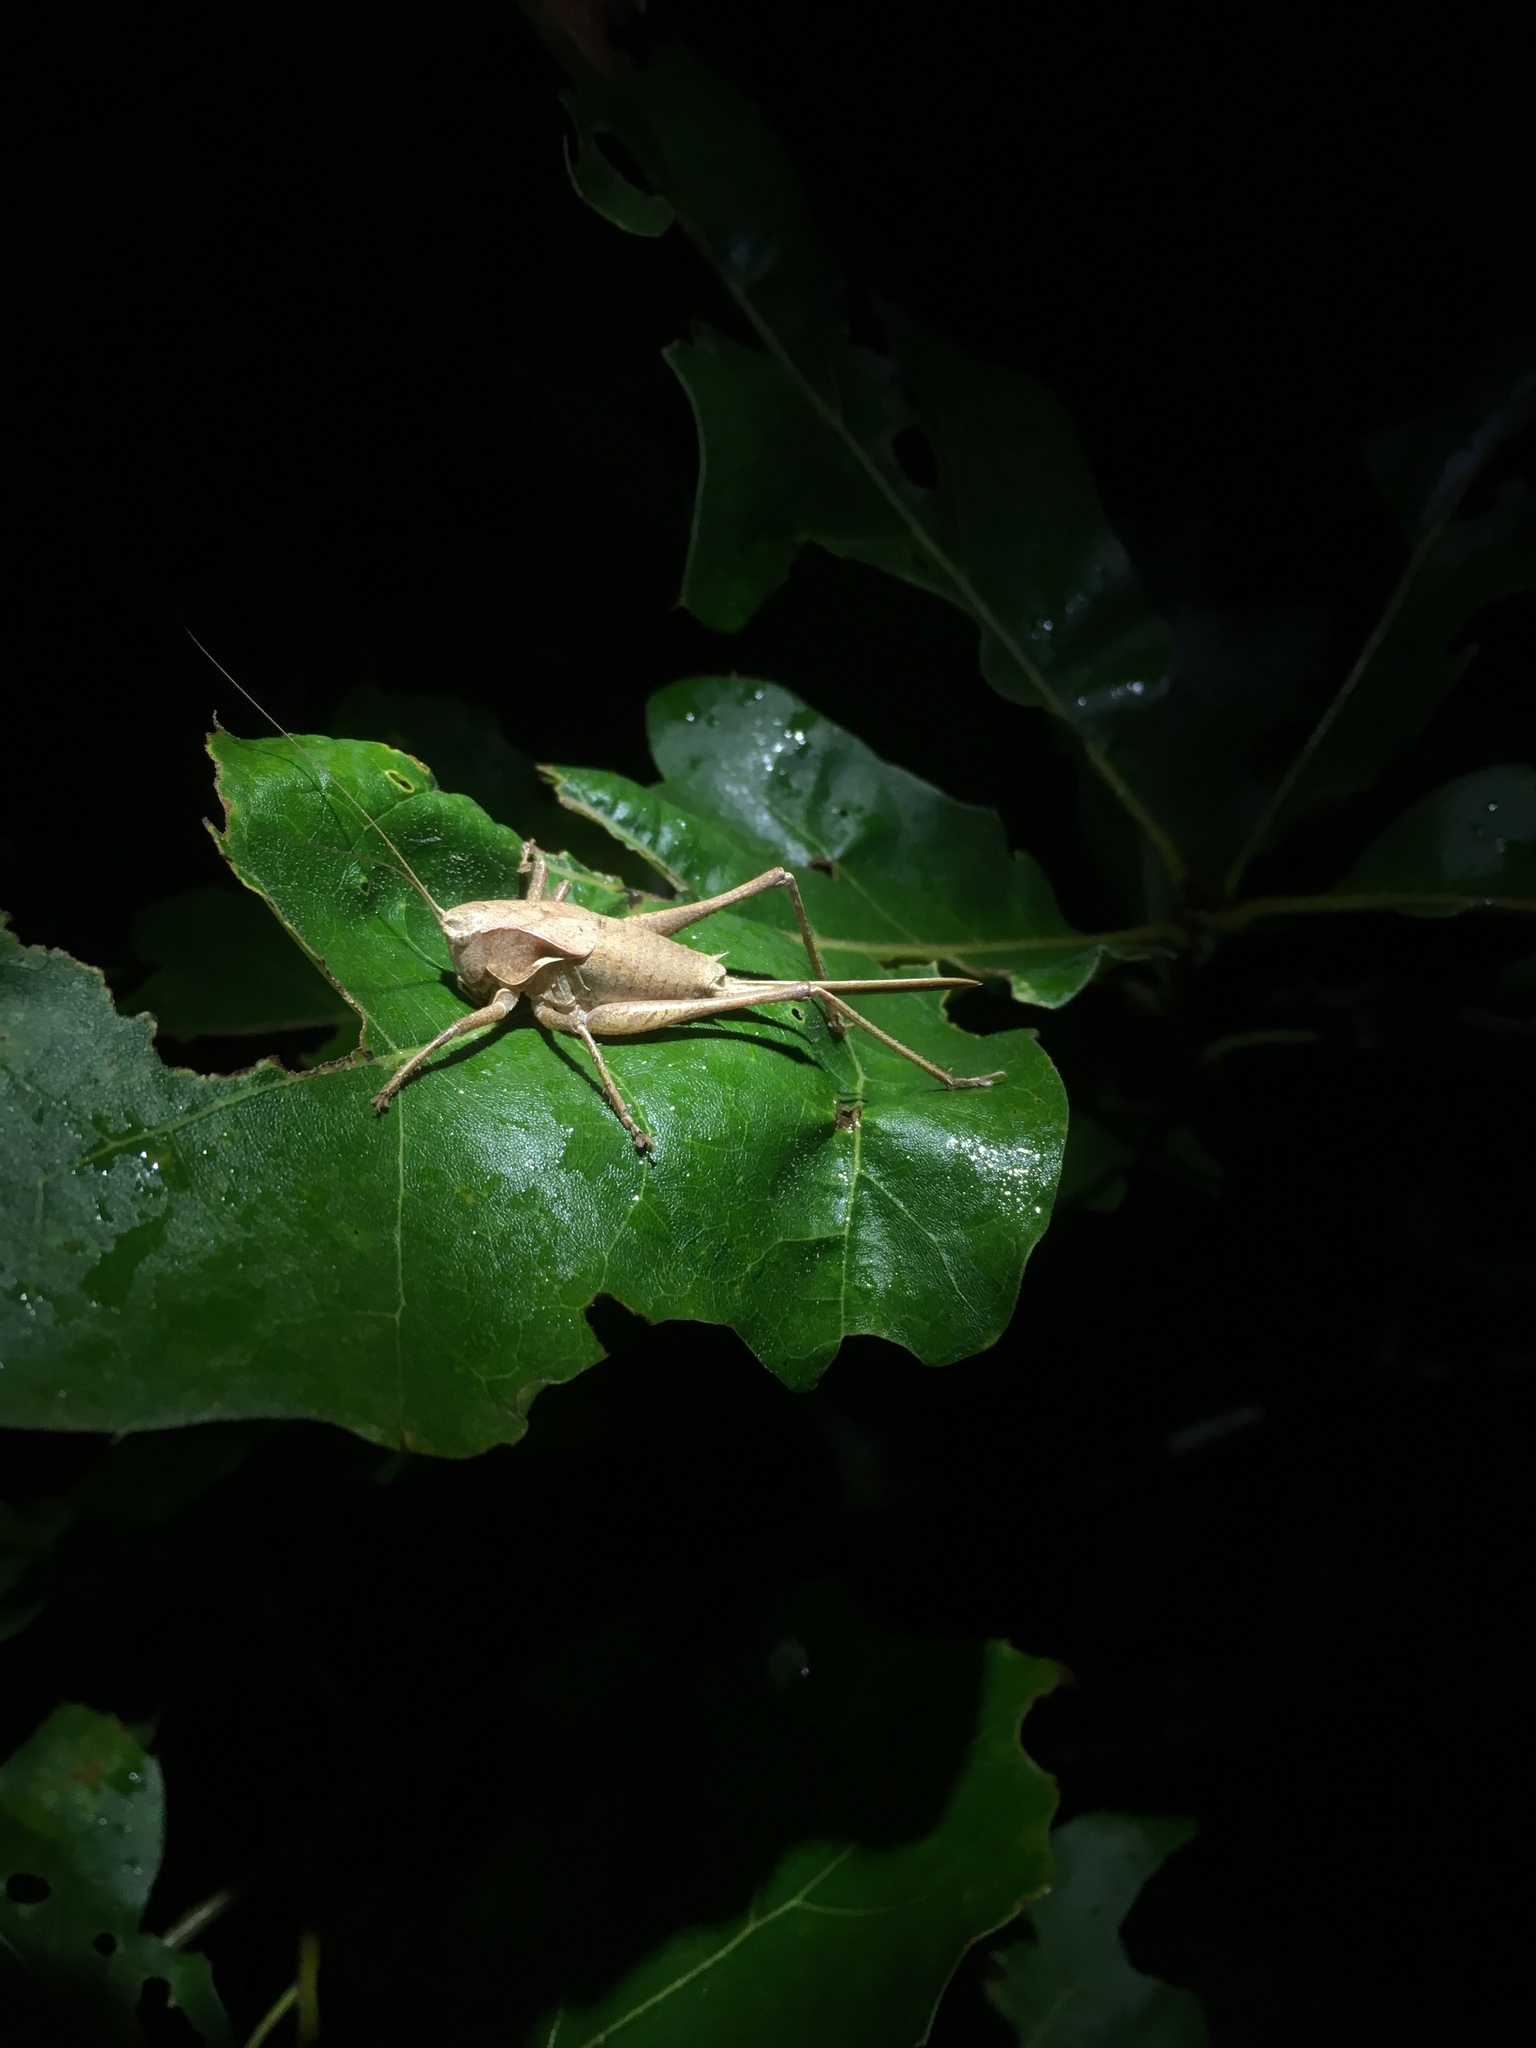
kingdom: Animalia
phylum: Arthropoda
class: Insecta
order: Orthoptera
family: Tettigoniidae
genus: Atlanticus
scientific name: Atlanticus davisi
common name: Davis's shield-bearer
